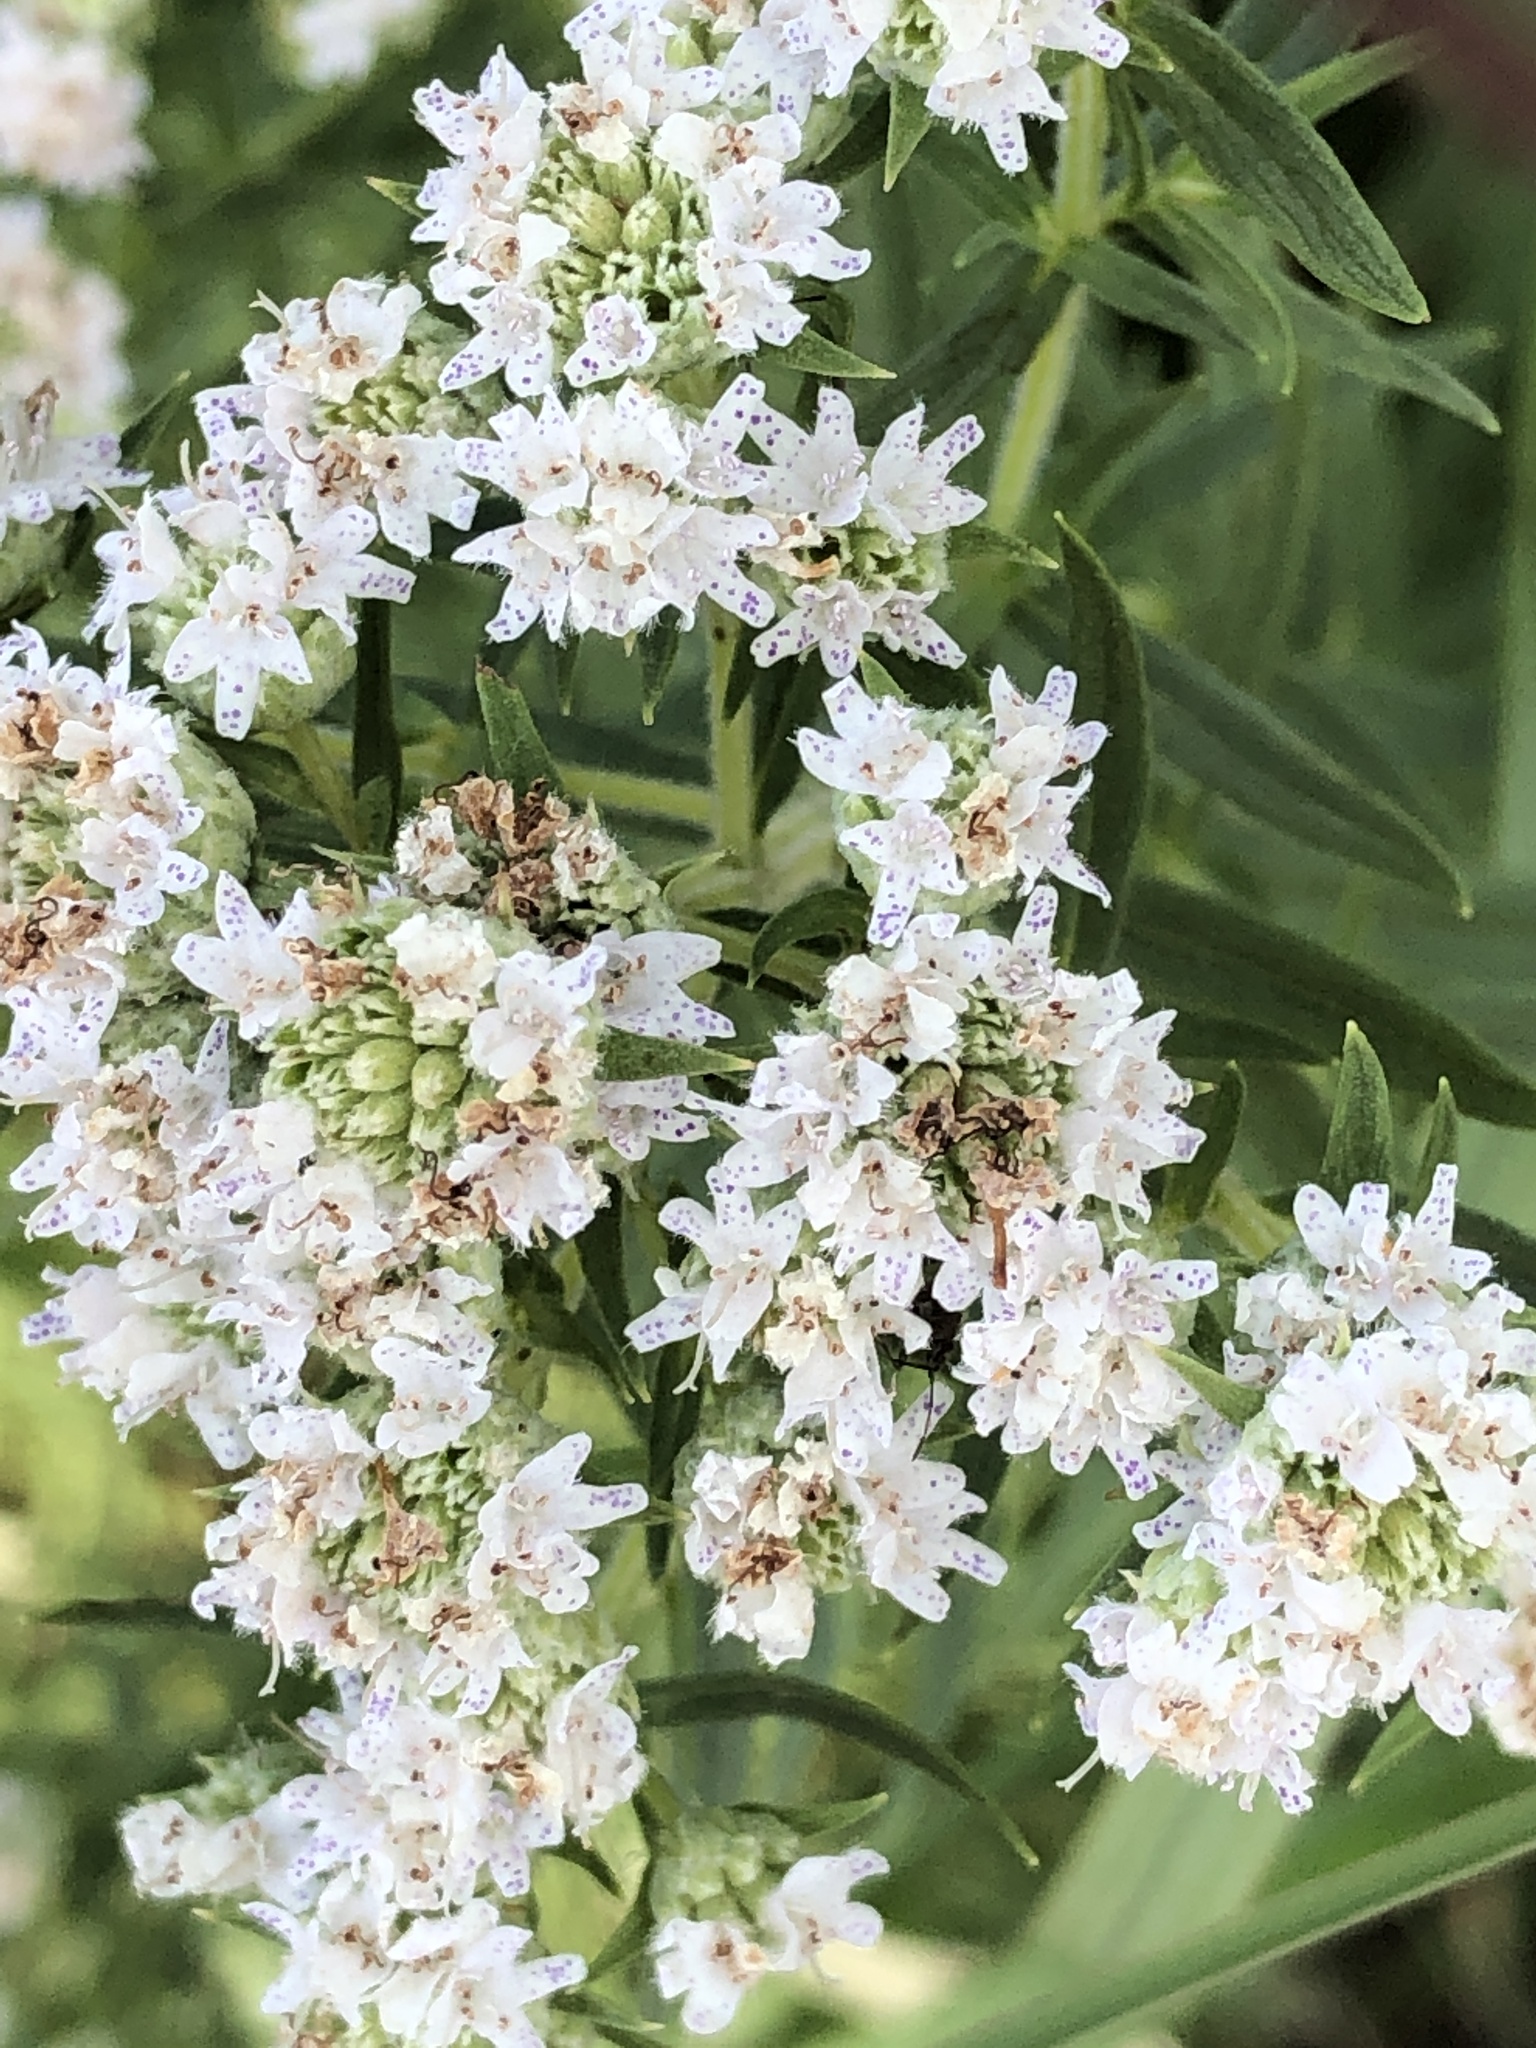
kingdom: Plantae
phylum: Tracheophyta
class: Magnoliopsida
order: Lamiales
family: Lamiaceae
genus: Pycnanthemum
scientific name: Pycnanthemum virginianum
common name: Virginia mountain-mint
